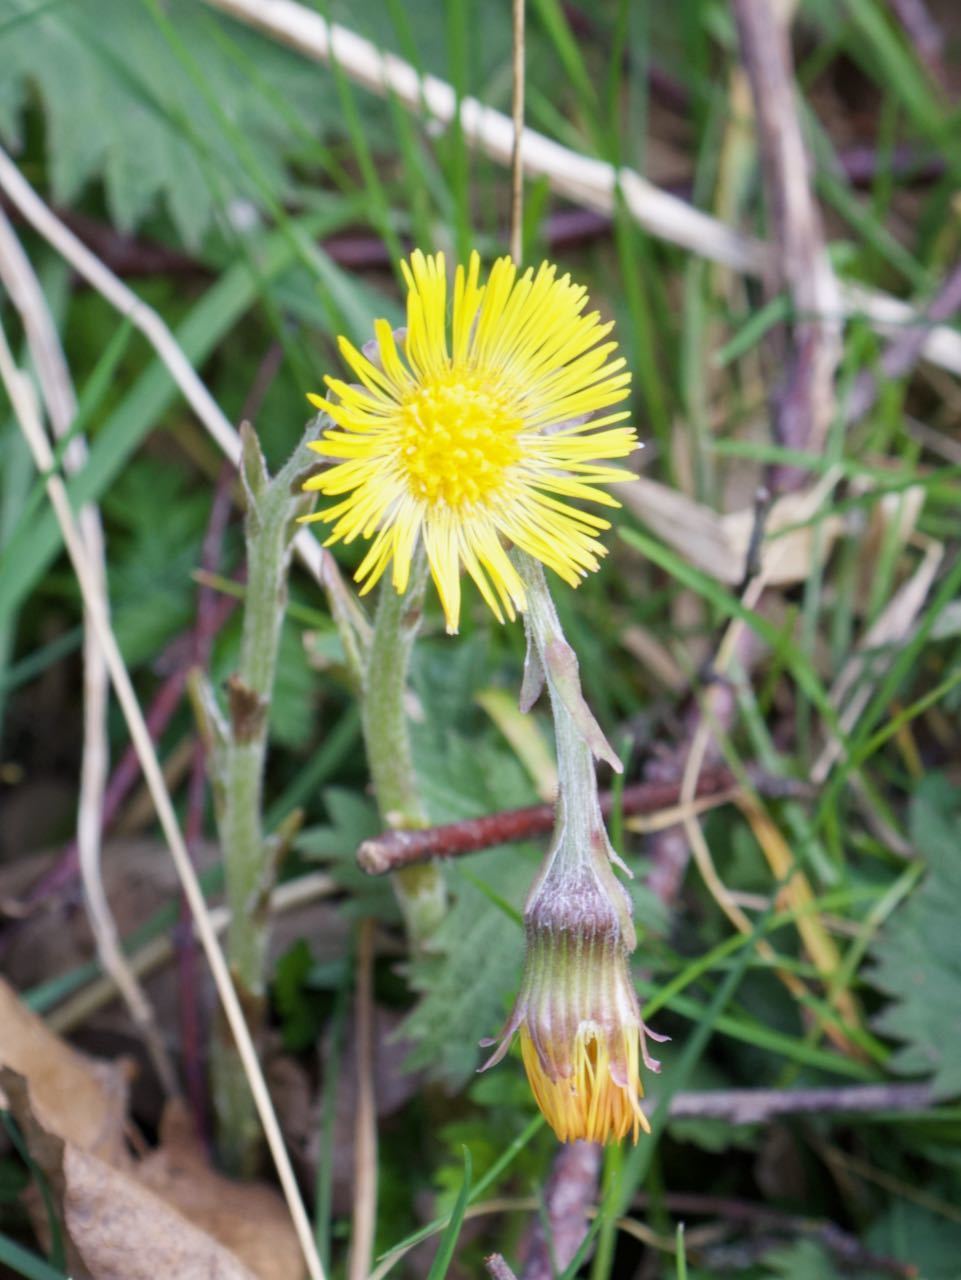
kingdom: Plantae
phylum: Tracheophyta
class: Magnoliopsida
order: Asterales
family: Asteraceae
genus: Tussilago
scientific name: Tussilago farfara
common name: Coltsfoot
